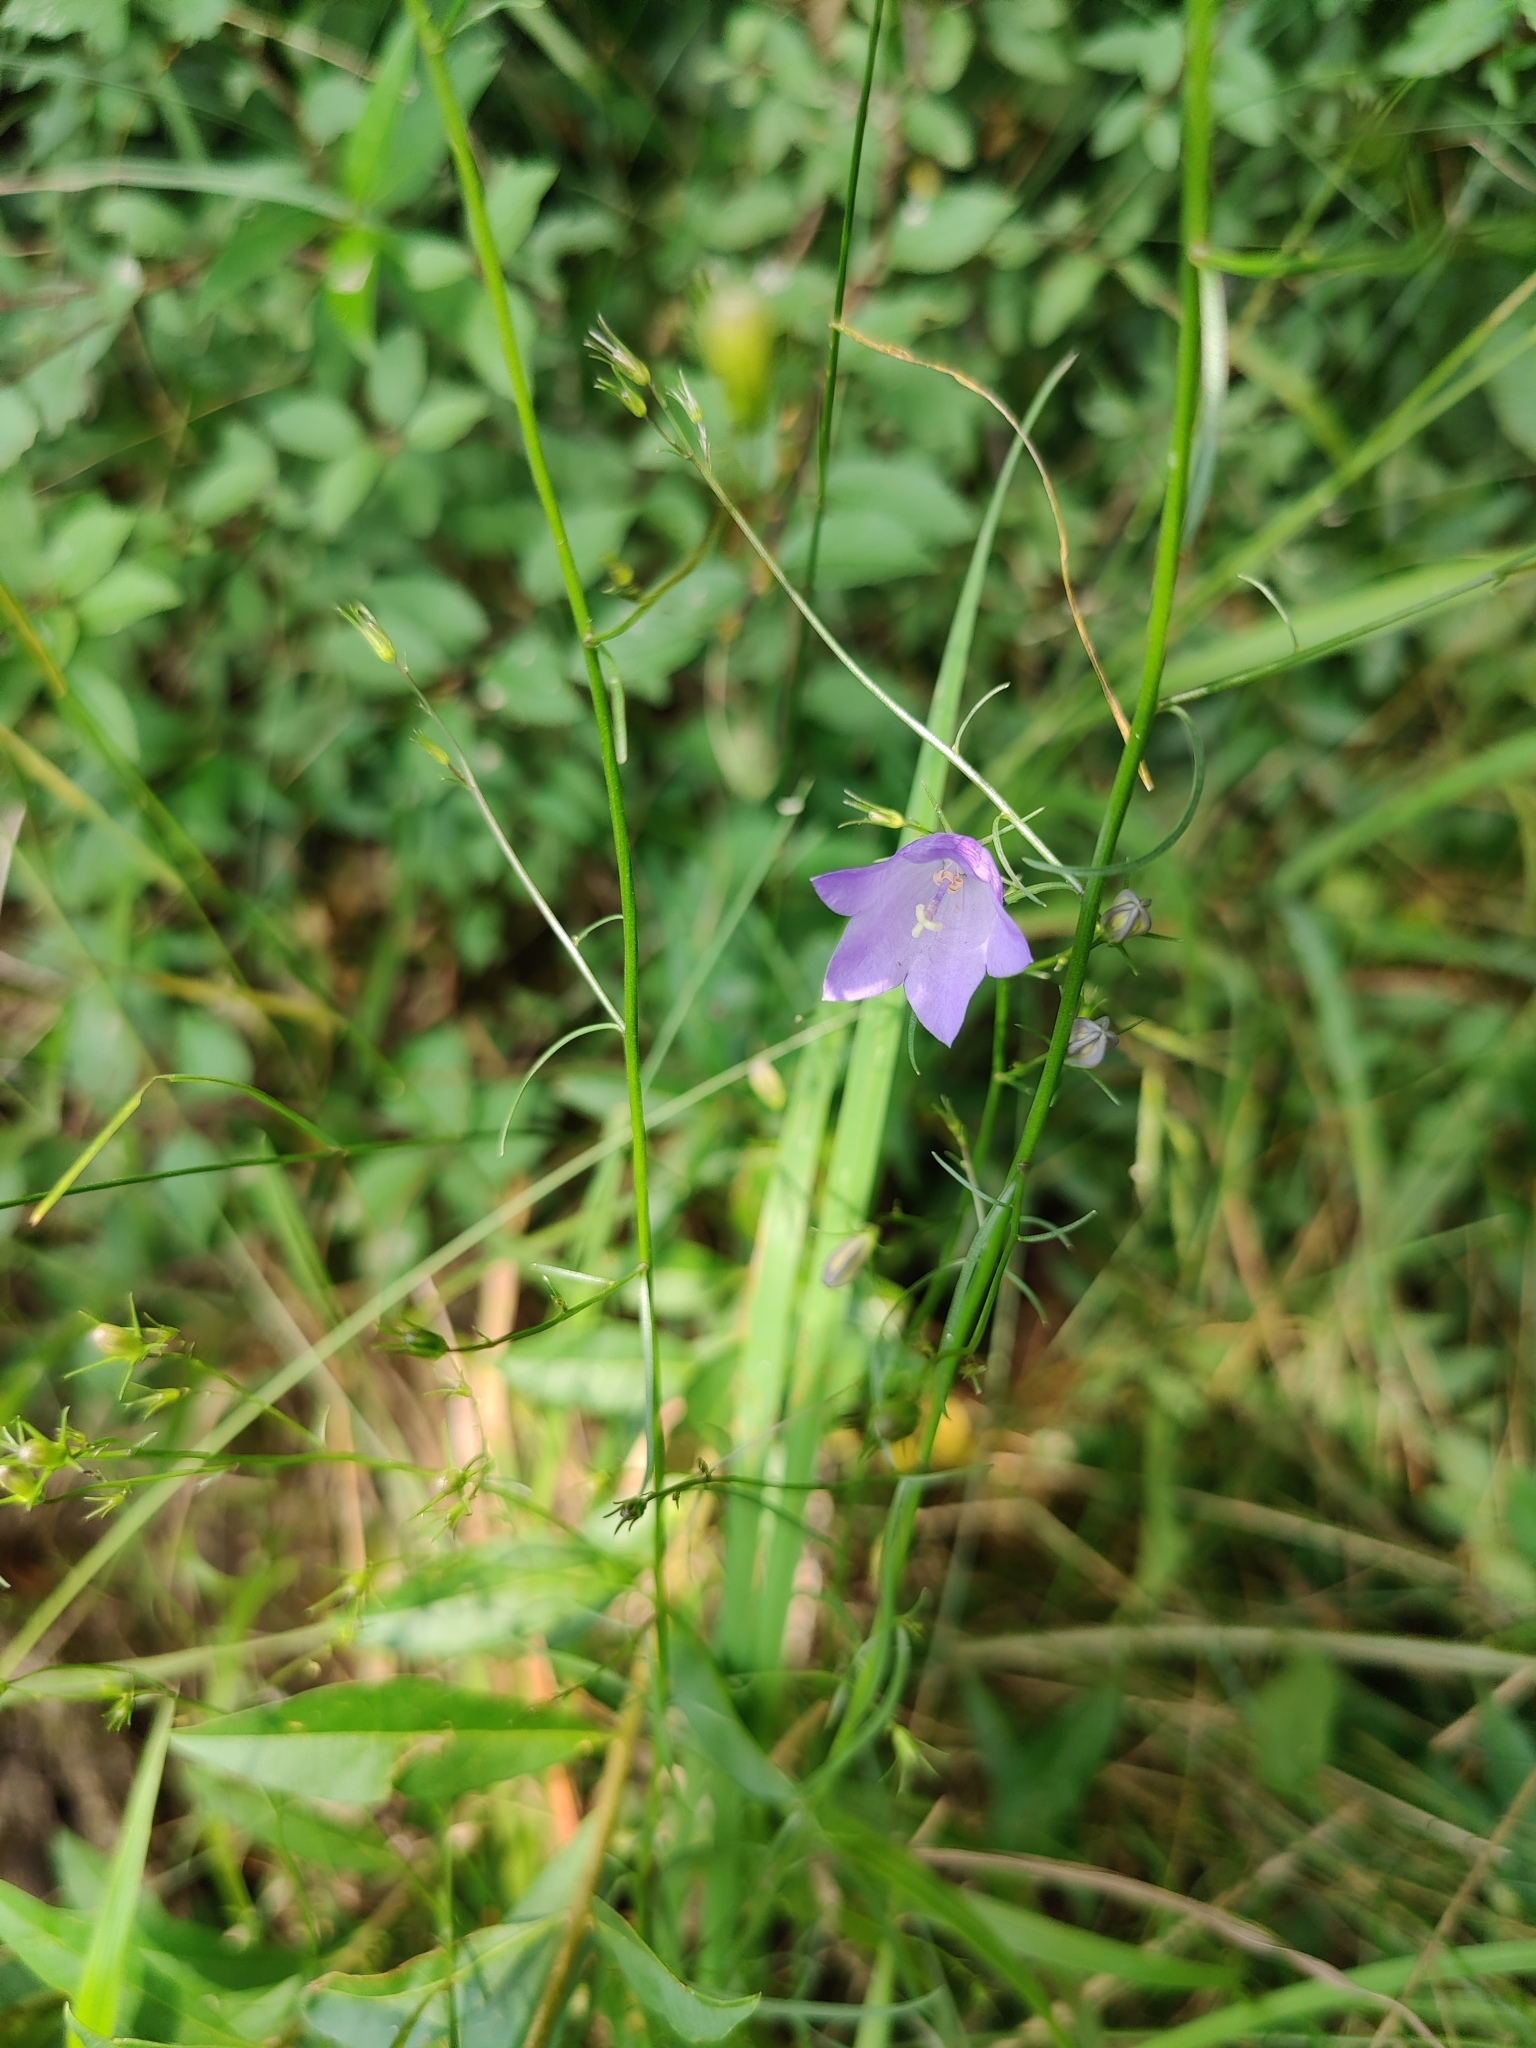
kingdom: Plantae
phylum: Tracheophyta
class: Magnoliopsida
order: Asterales
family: Campanulaceae
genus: Campanula
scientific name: Campanula rotundifolia
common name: Harebell
